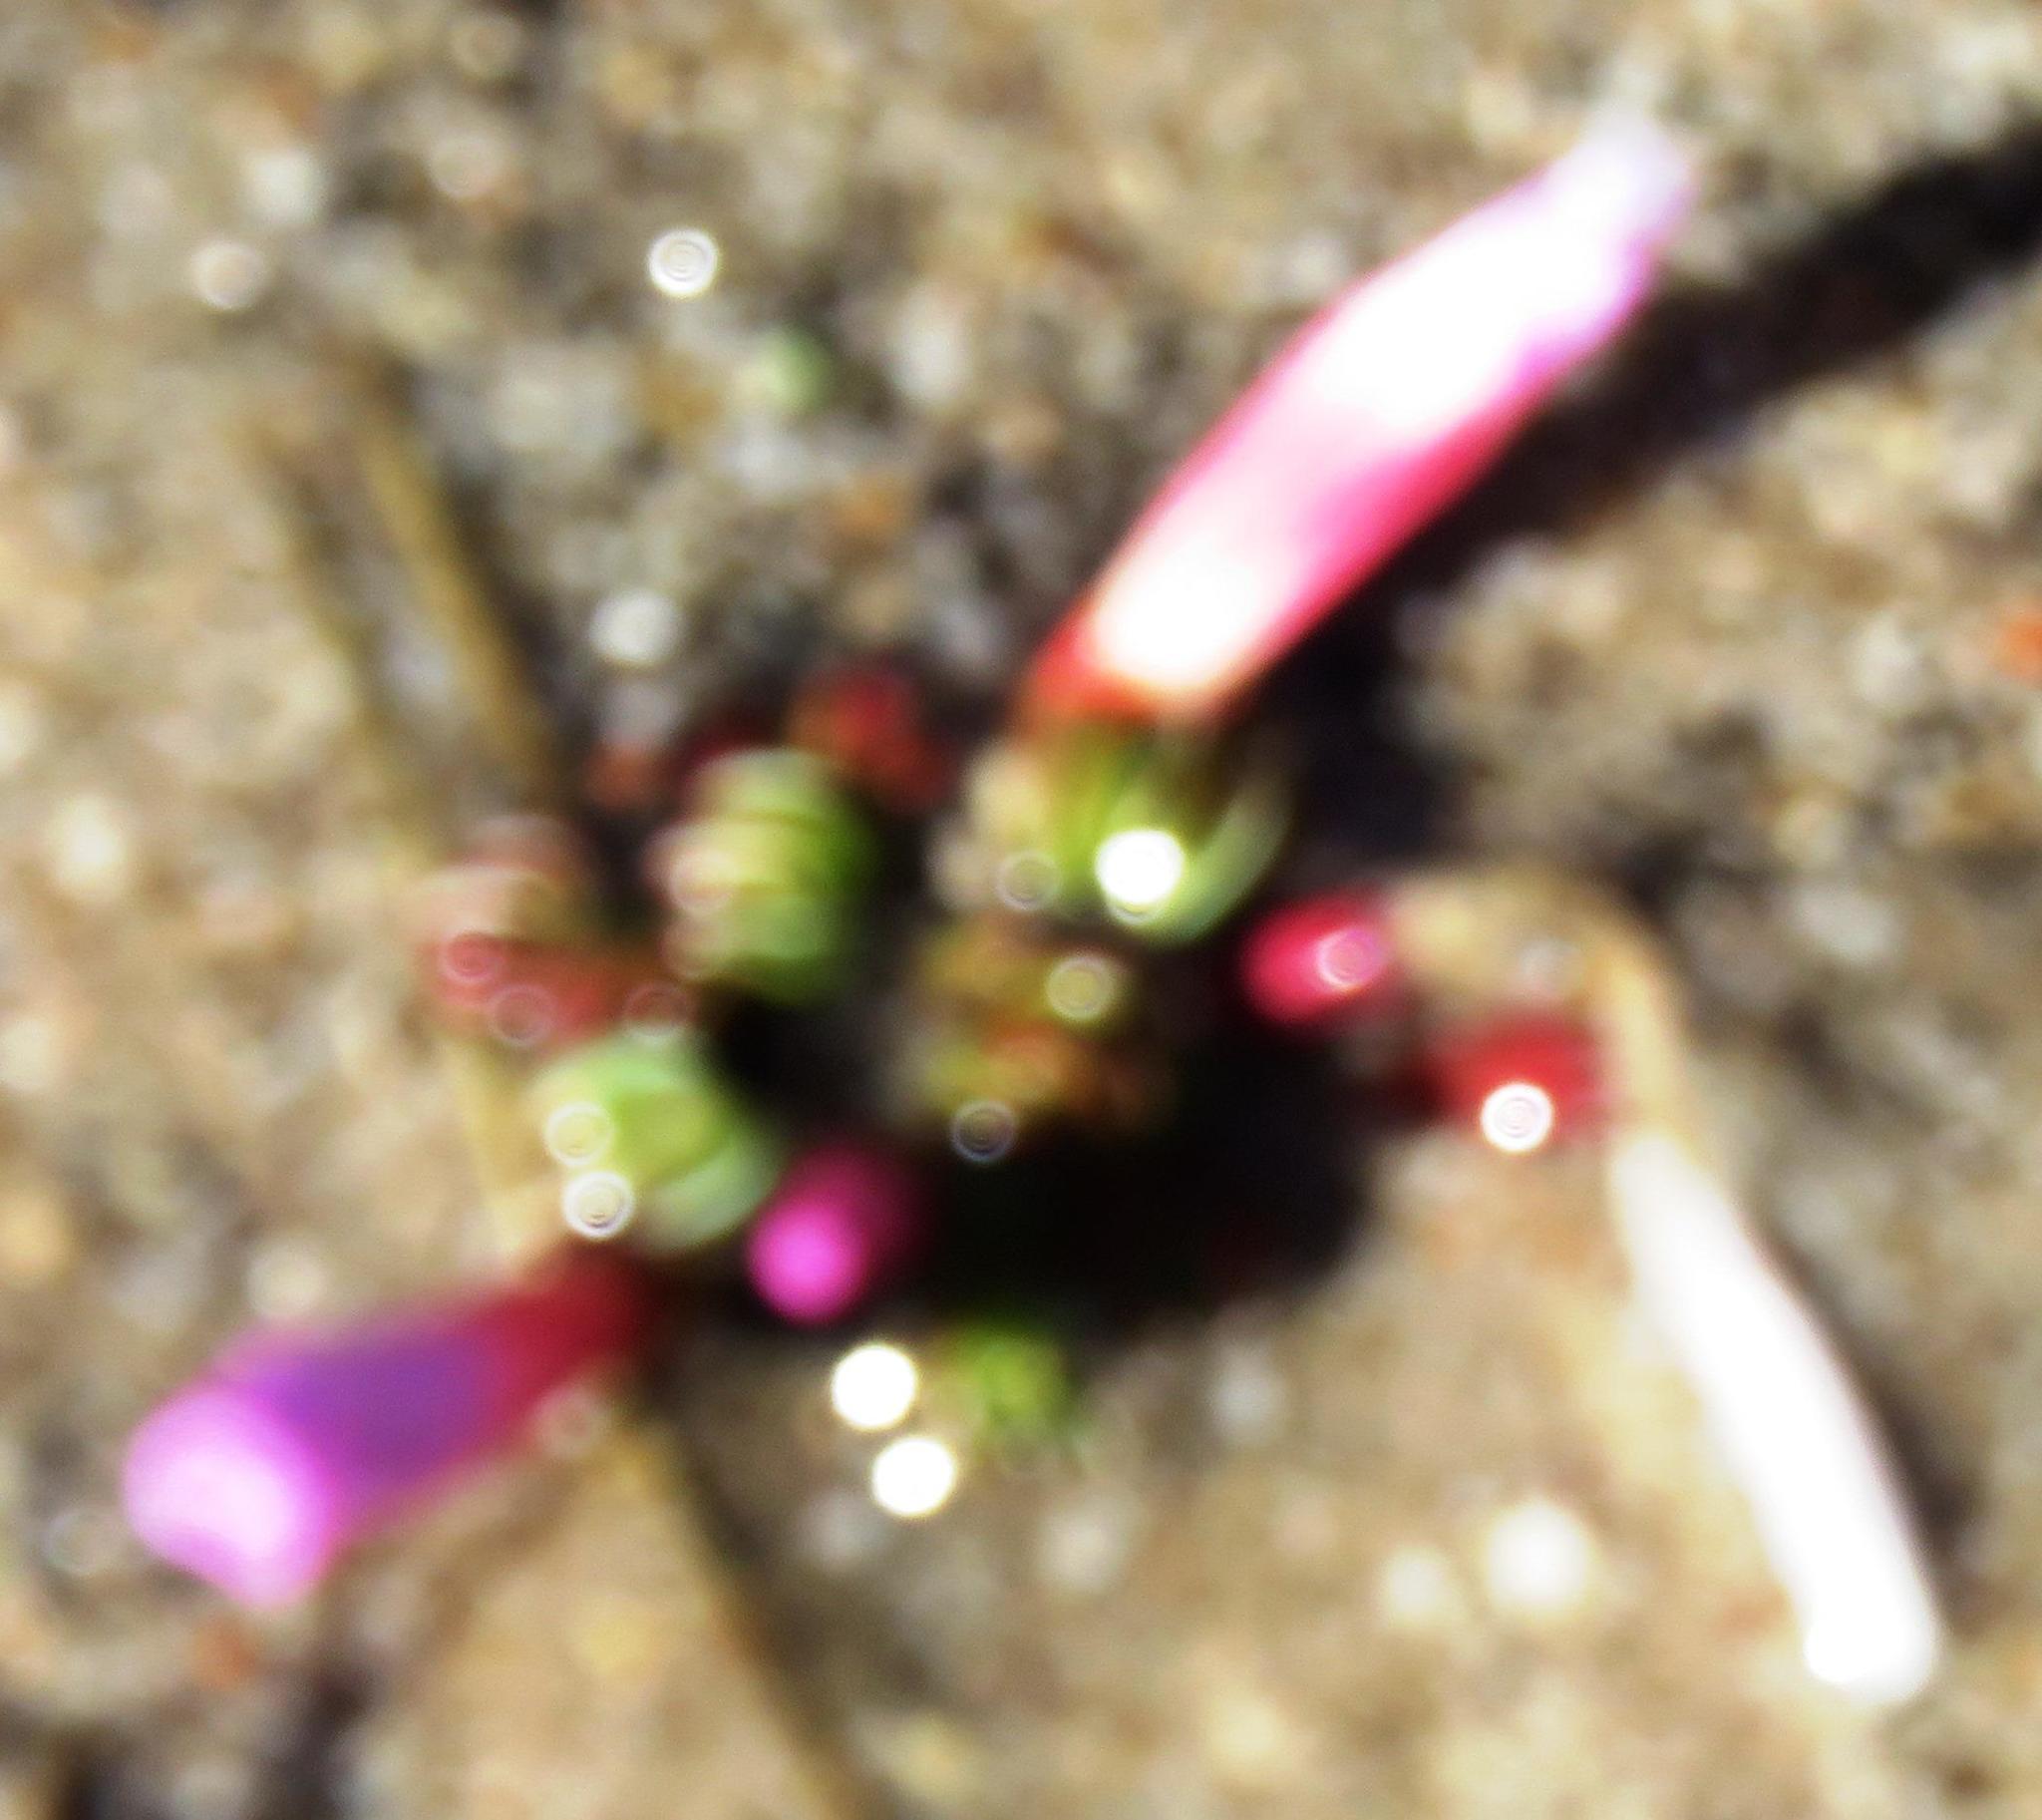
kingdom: Plantae
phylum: Tracheophyta
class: Magnoliopsida
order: Oxalidales
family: Oxalidaceae
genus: Oxalis
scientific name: Oxalis stokoei
